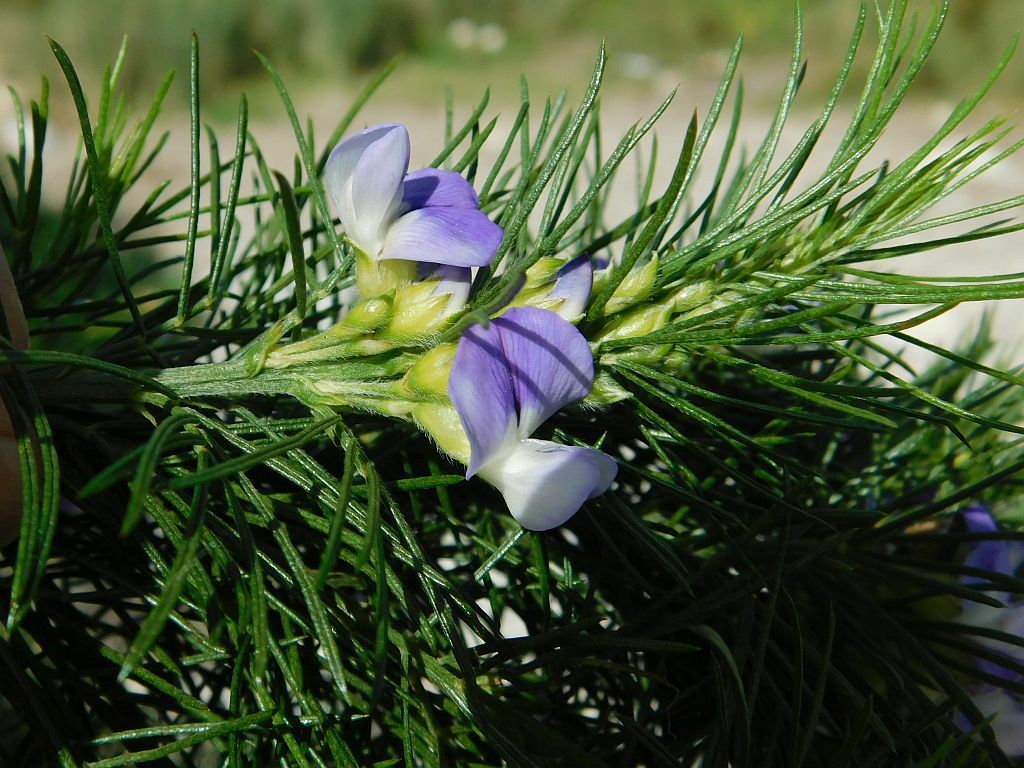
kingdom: Plantae
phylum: Tracheophyta
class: Magnoliopsida
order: Fabales
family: Fabaceae
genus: Psoralea
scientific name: Psoralea ivumba
